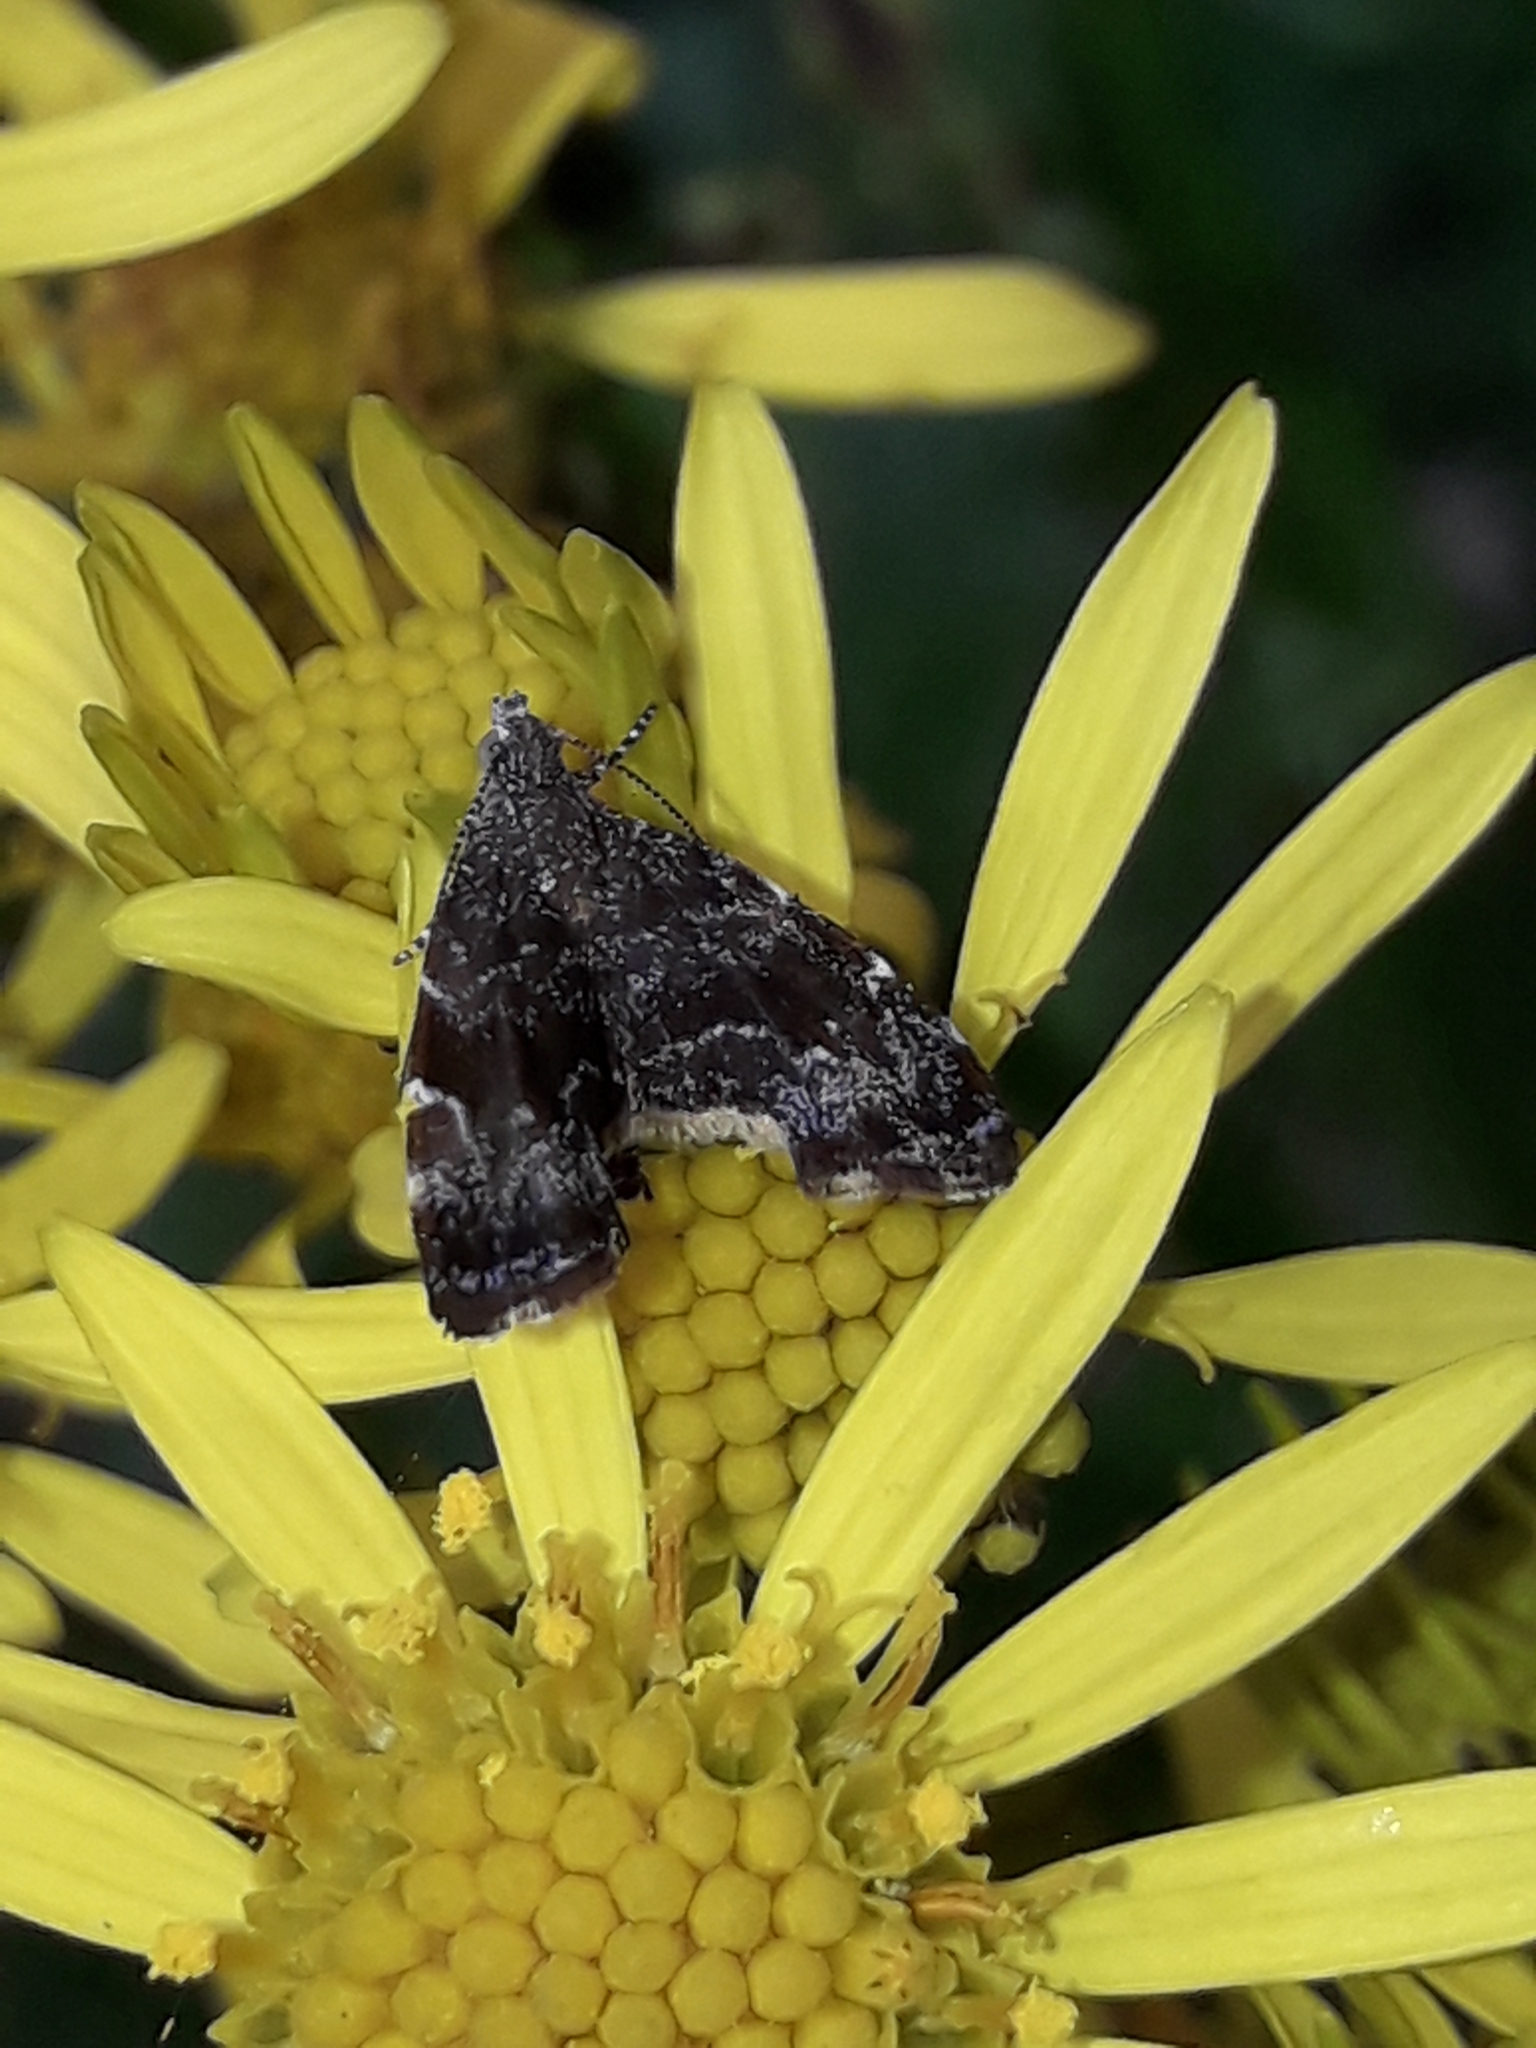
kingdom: Animalia
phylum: Arthropoda
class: Insecta
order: Lepidoptera
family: Choreutidae
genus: Asterivora
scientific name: Asterivora colpota
